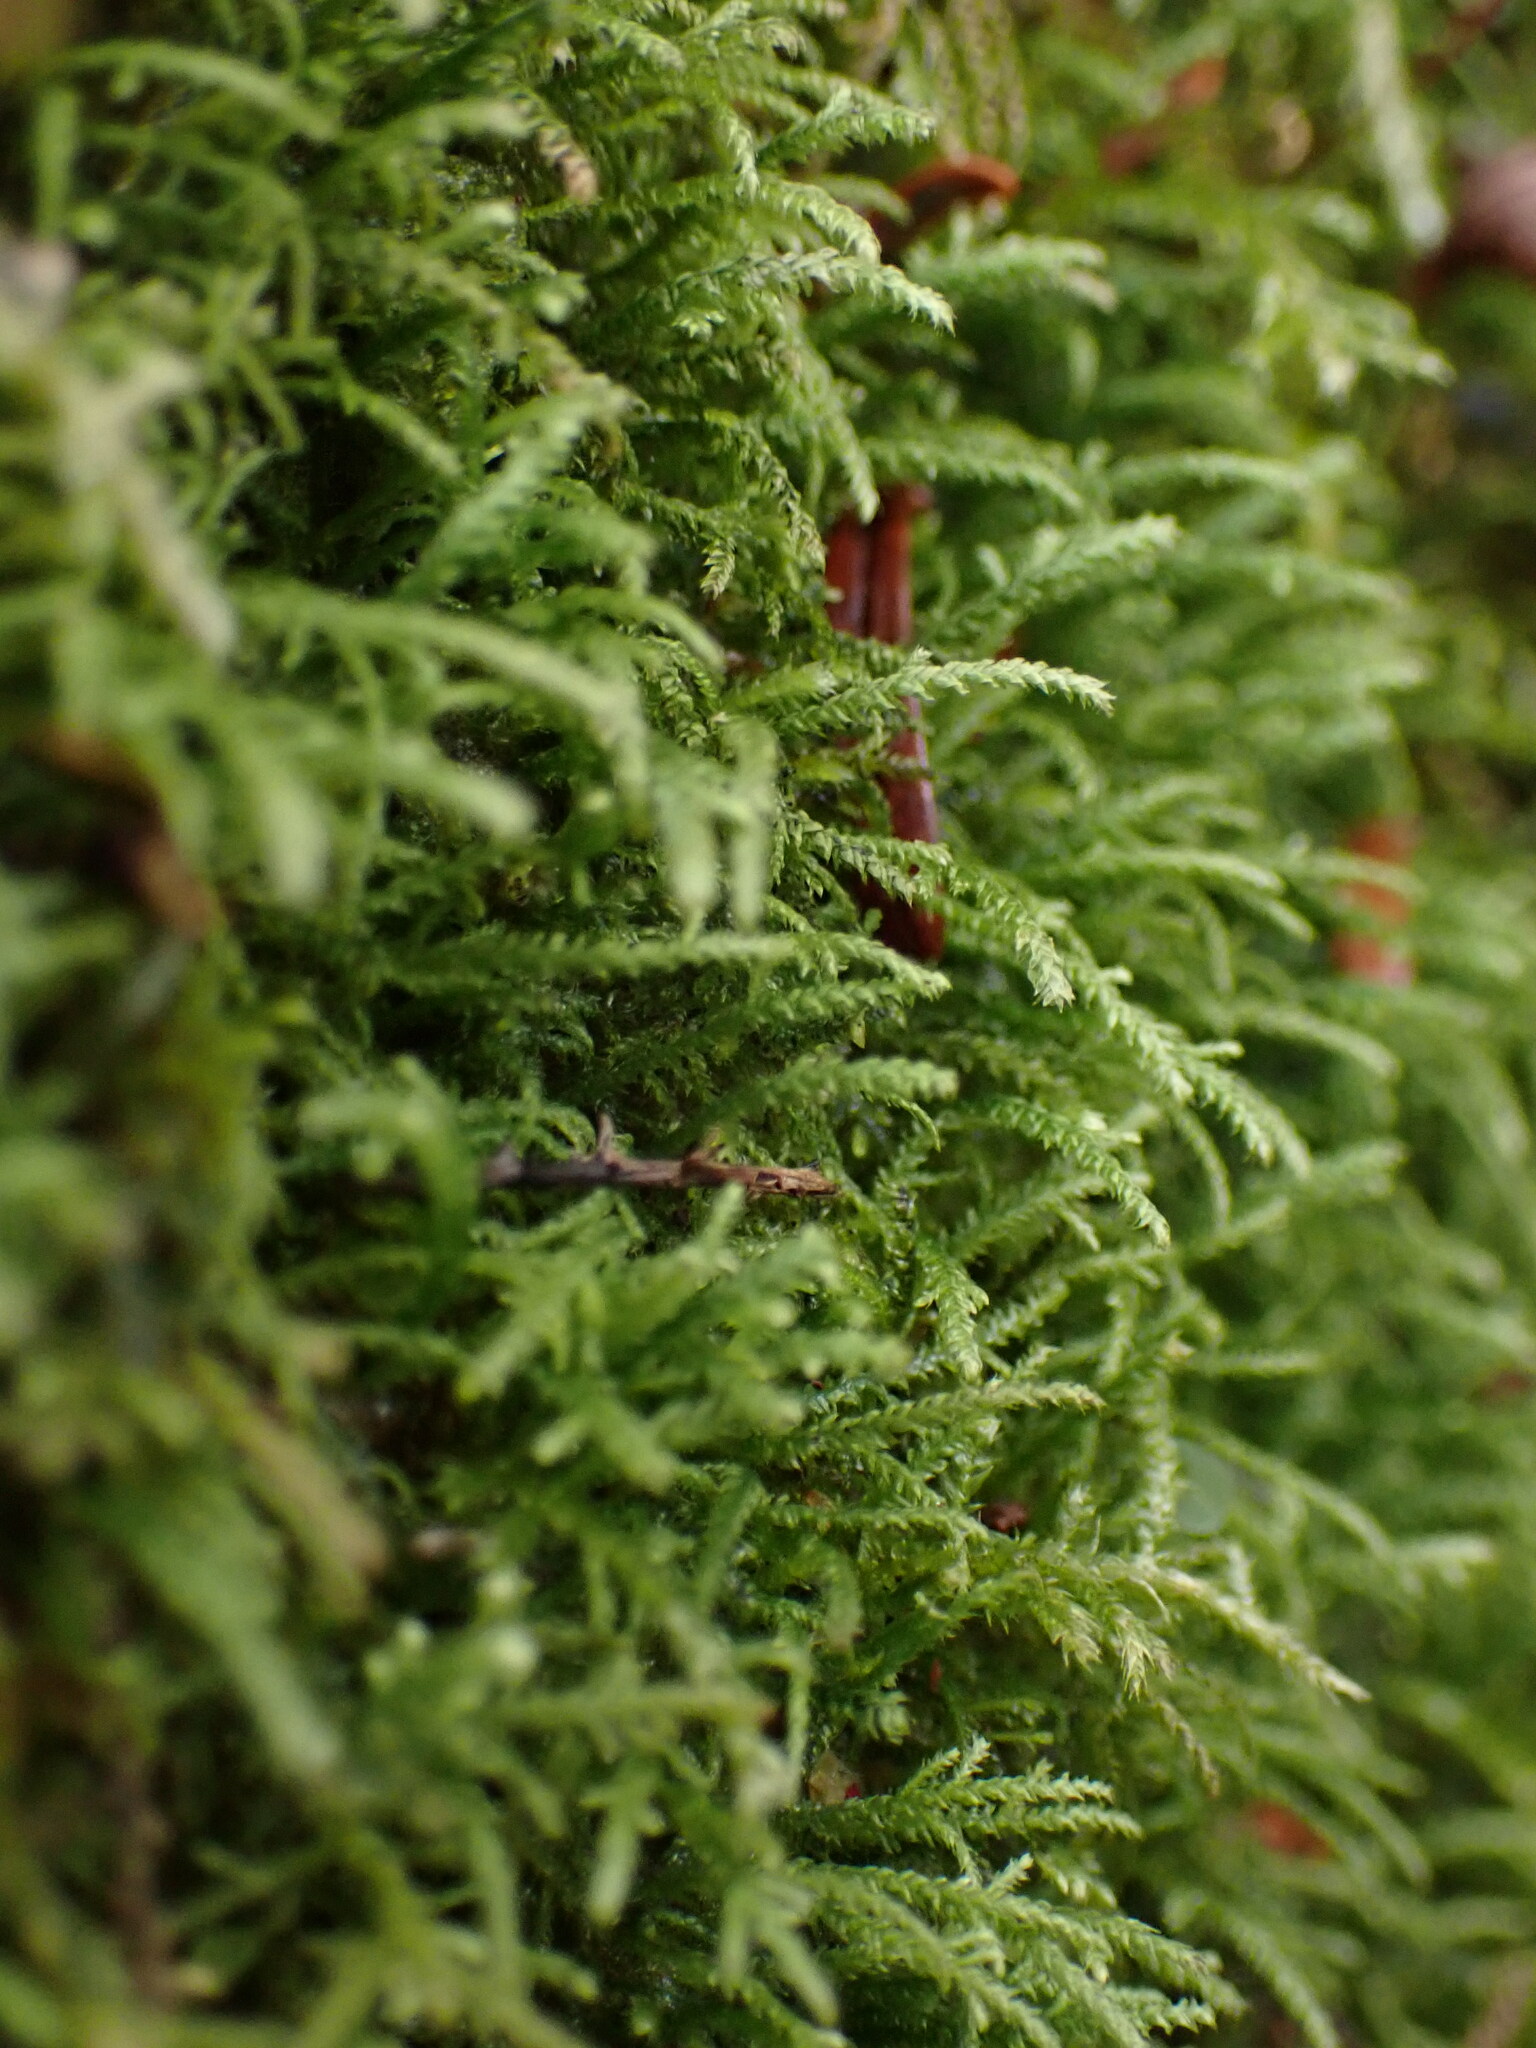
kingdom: Plantae
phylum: Bryophyta
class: Bryopsida
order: Hypnales
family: Lembophyllaceae
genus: Heterocladium
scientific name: Heterocladium macounii
